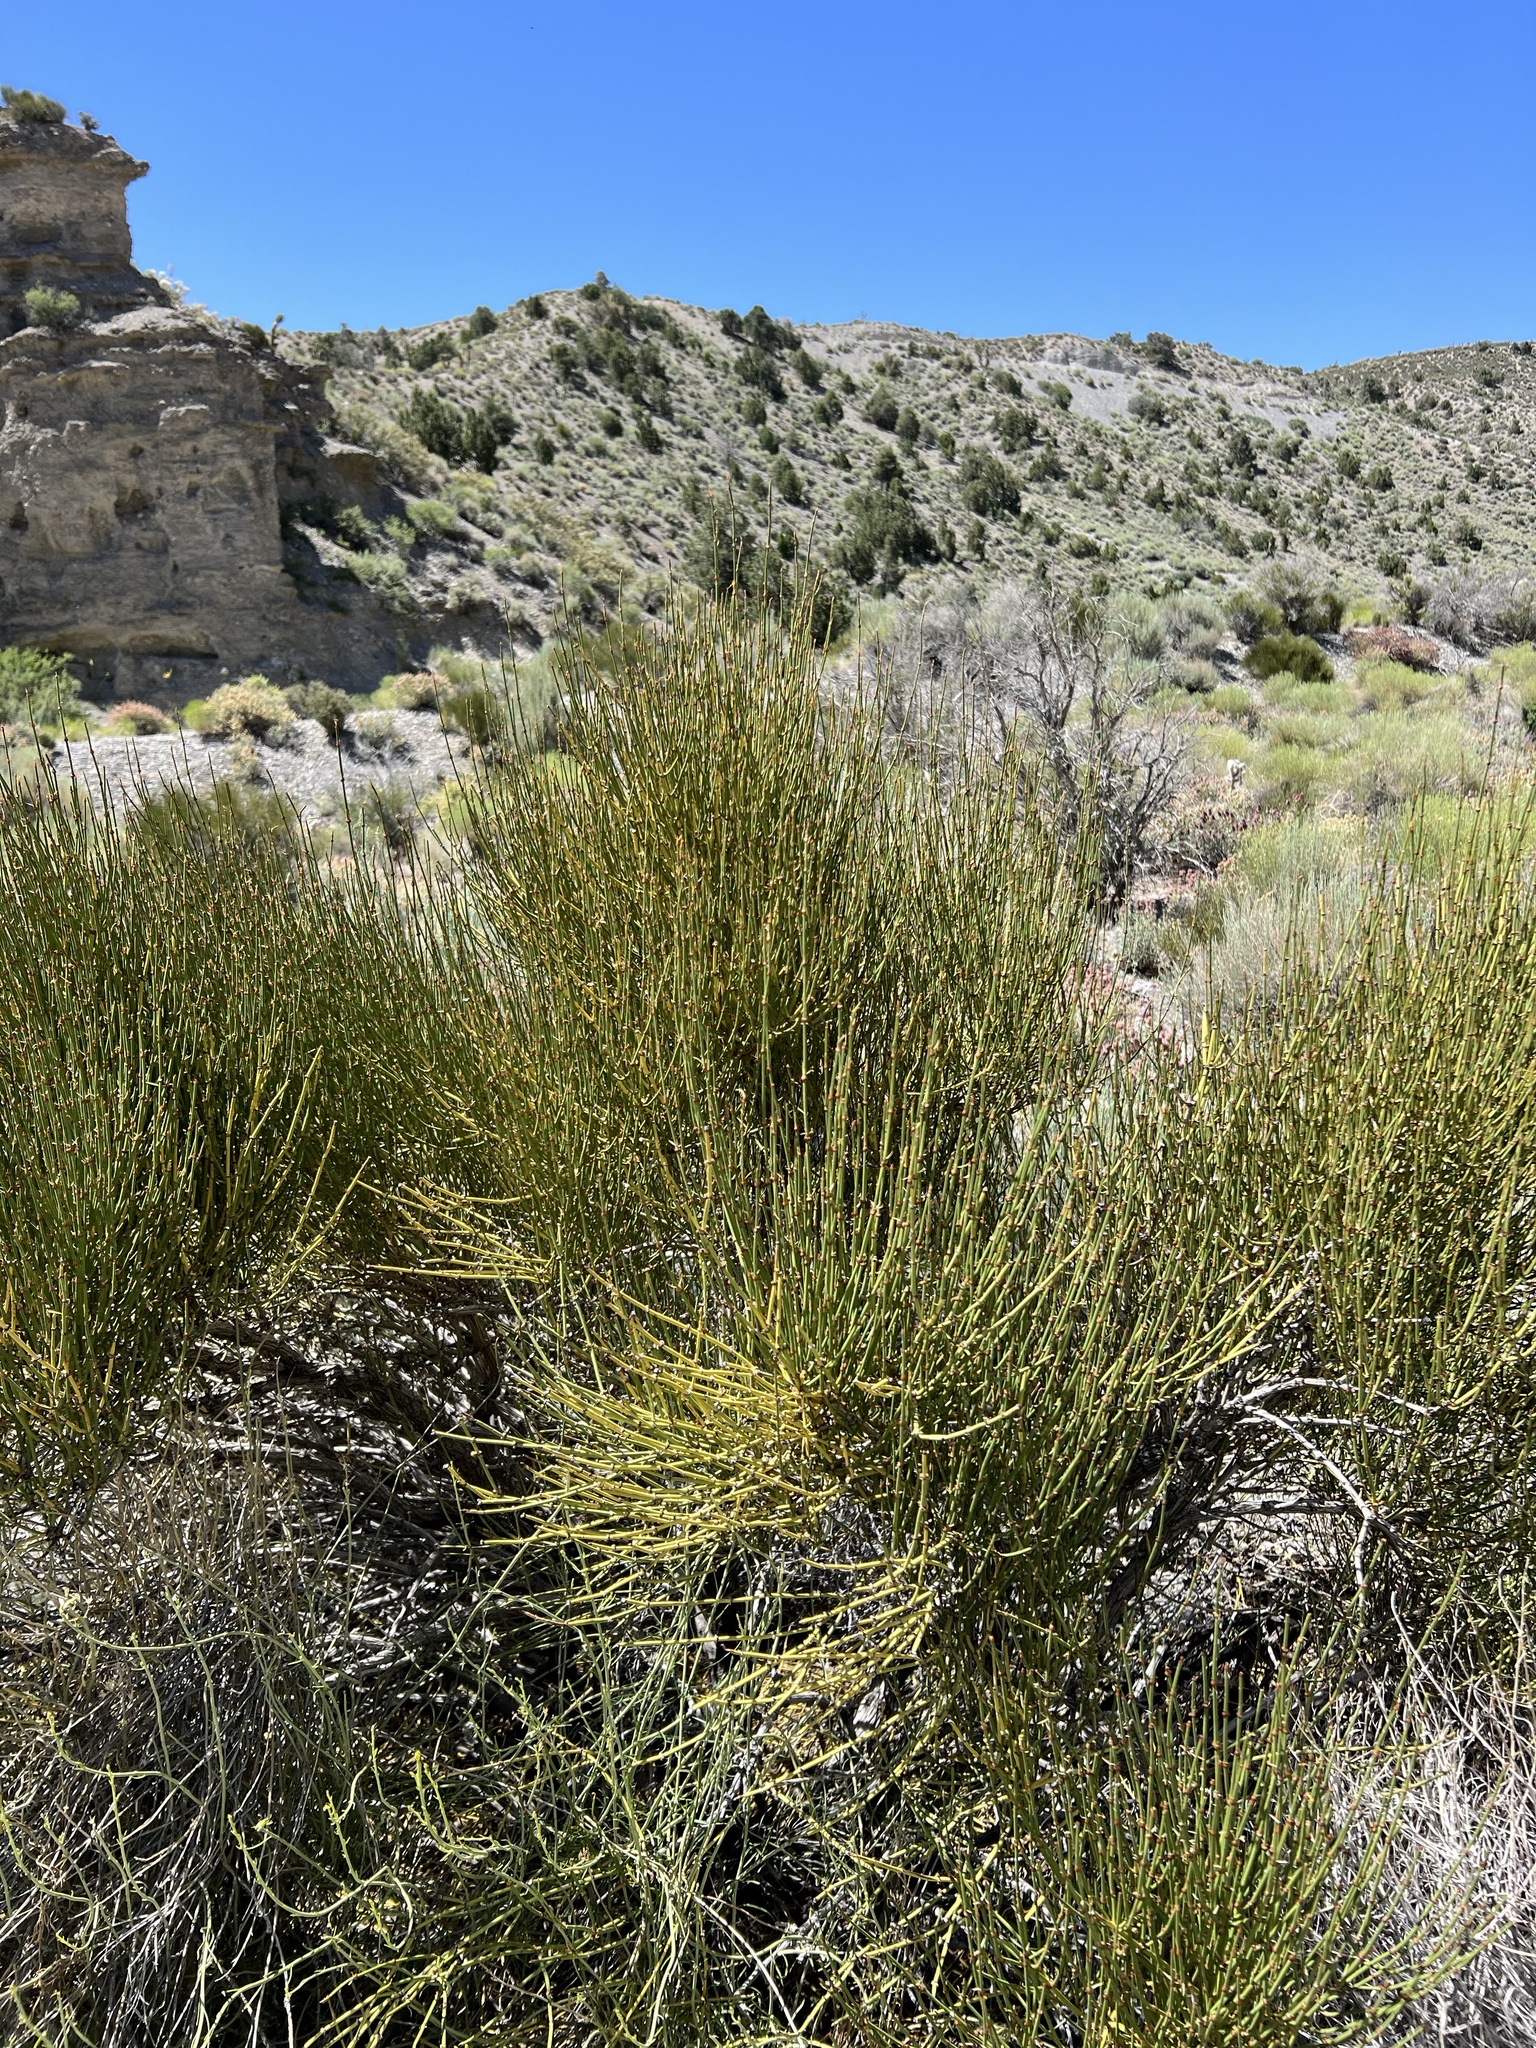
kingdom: Plantae
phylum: Tracheophyta
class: Gnetopsida
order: Ephedrales
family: Ephedraceae
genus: Ephedra
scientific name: Ephedra viridis
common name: Green ephedra
